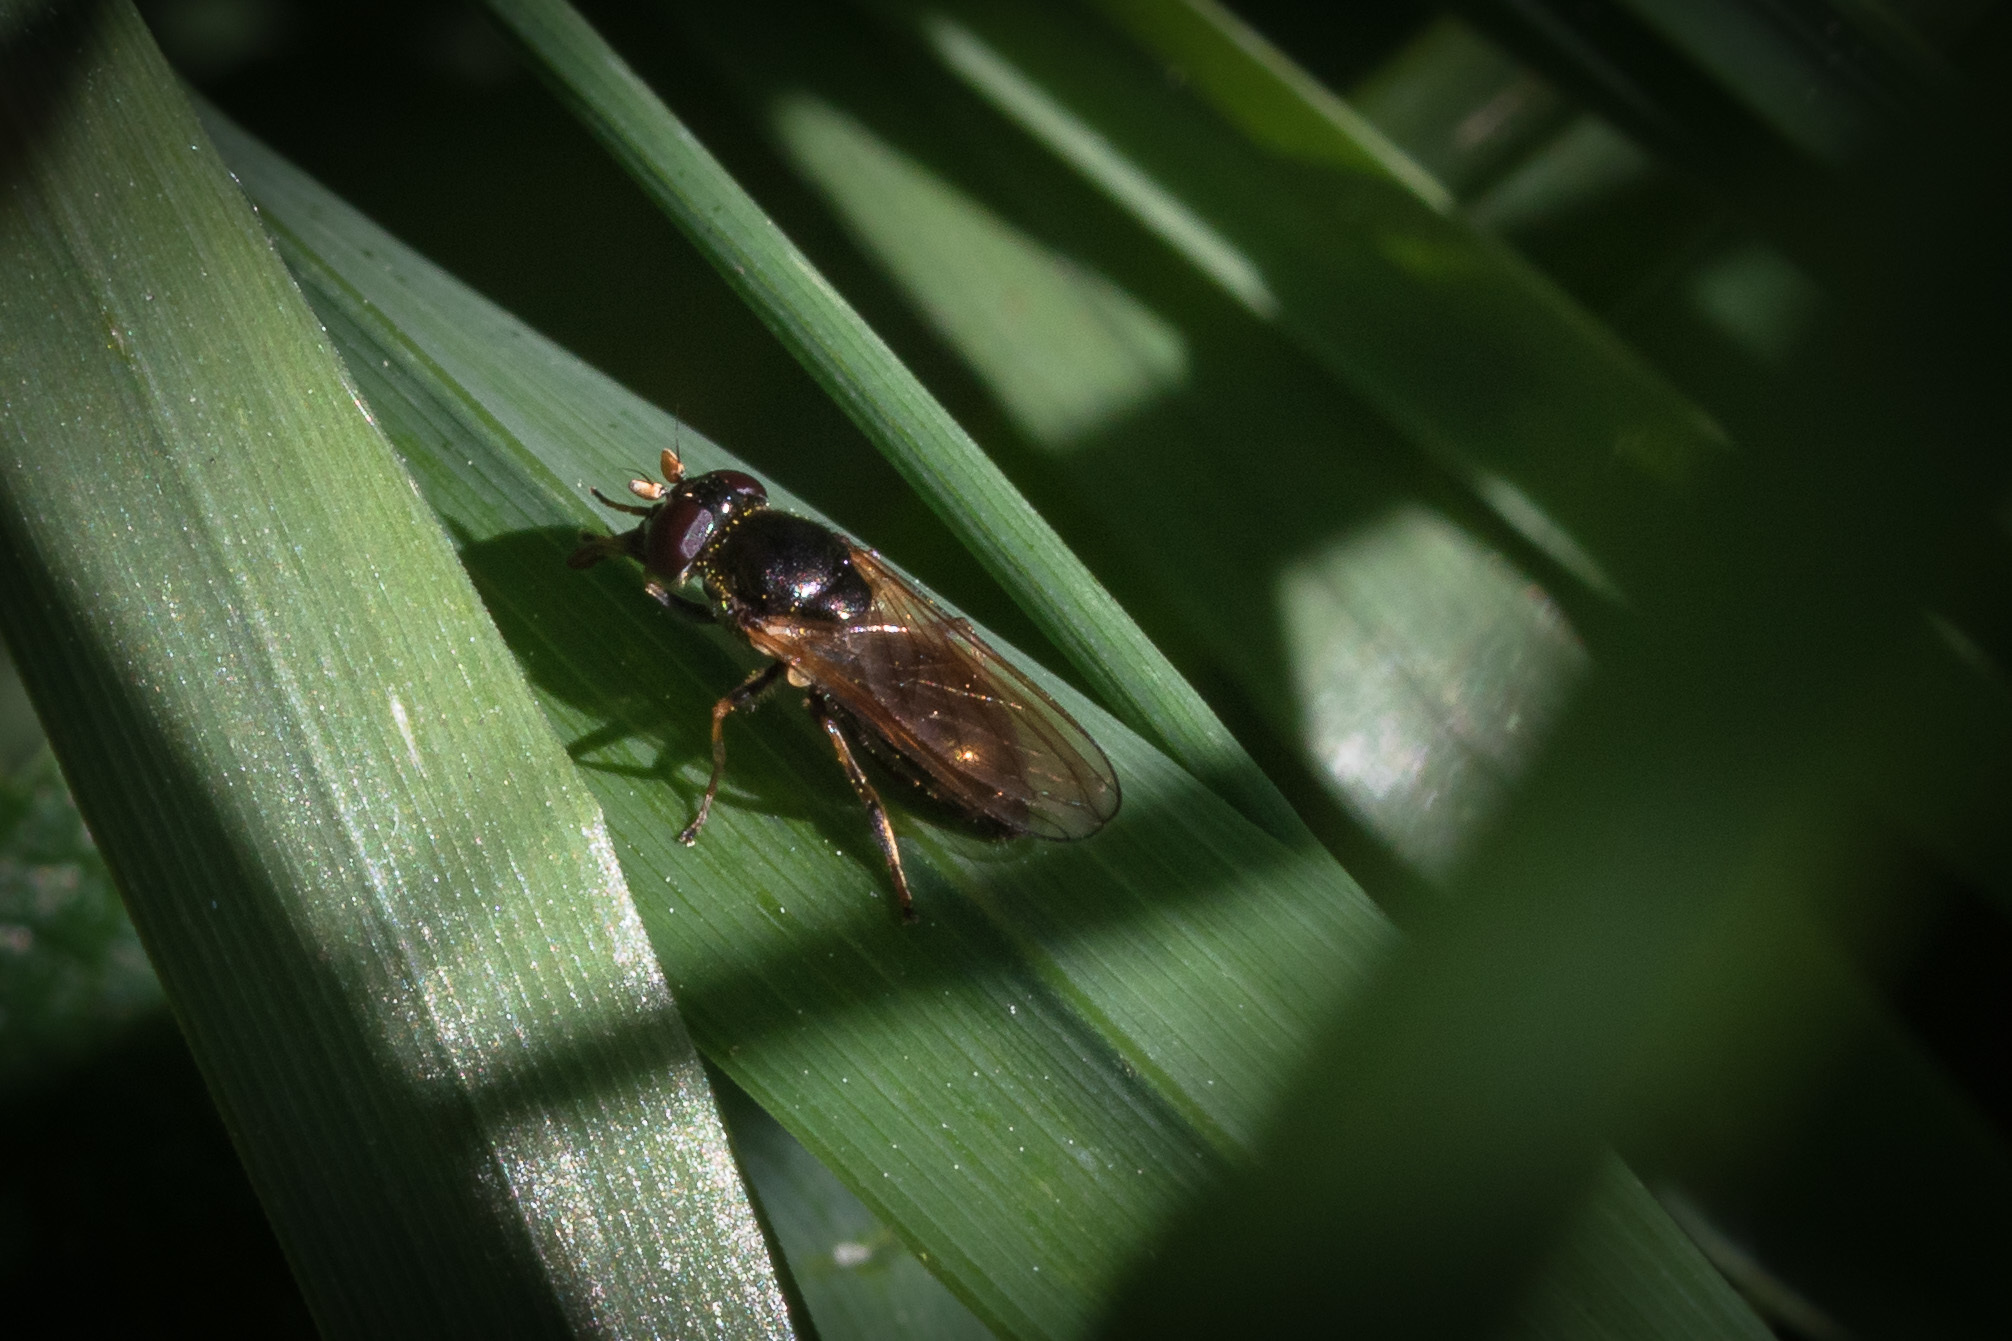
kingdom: Animalia
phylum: Arthropoda
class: Insecta
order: Diptera
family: Syrphidae
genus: Cheilosia
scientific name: Cheilosia pagana
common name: Hover fly
